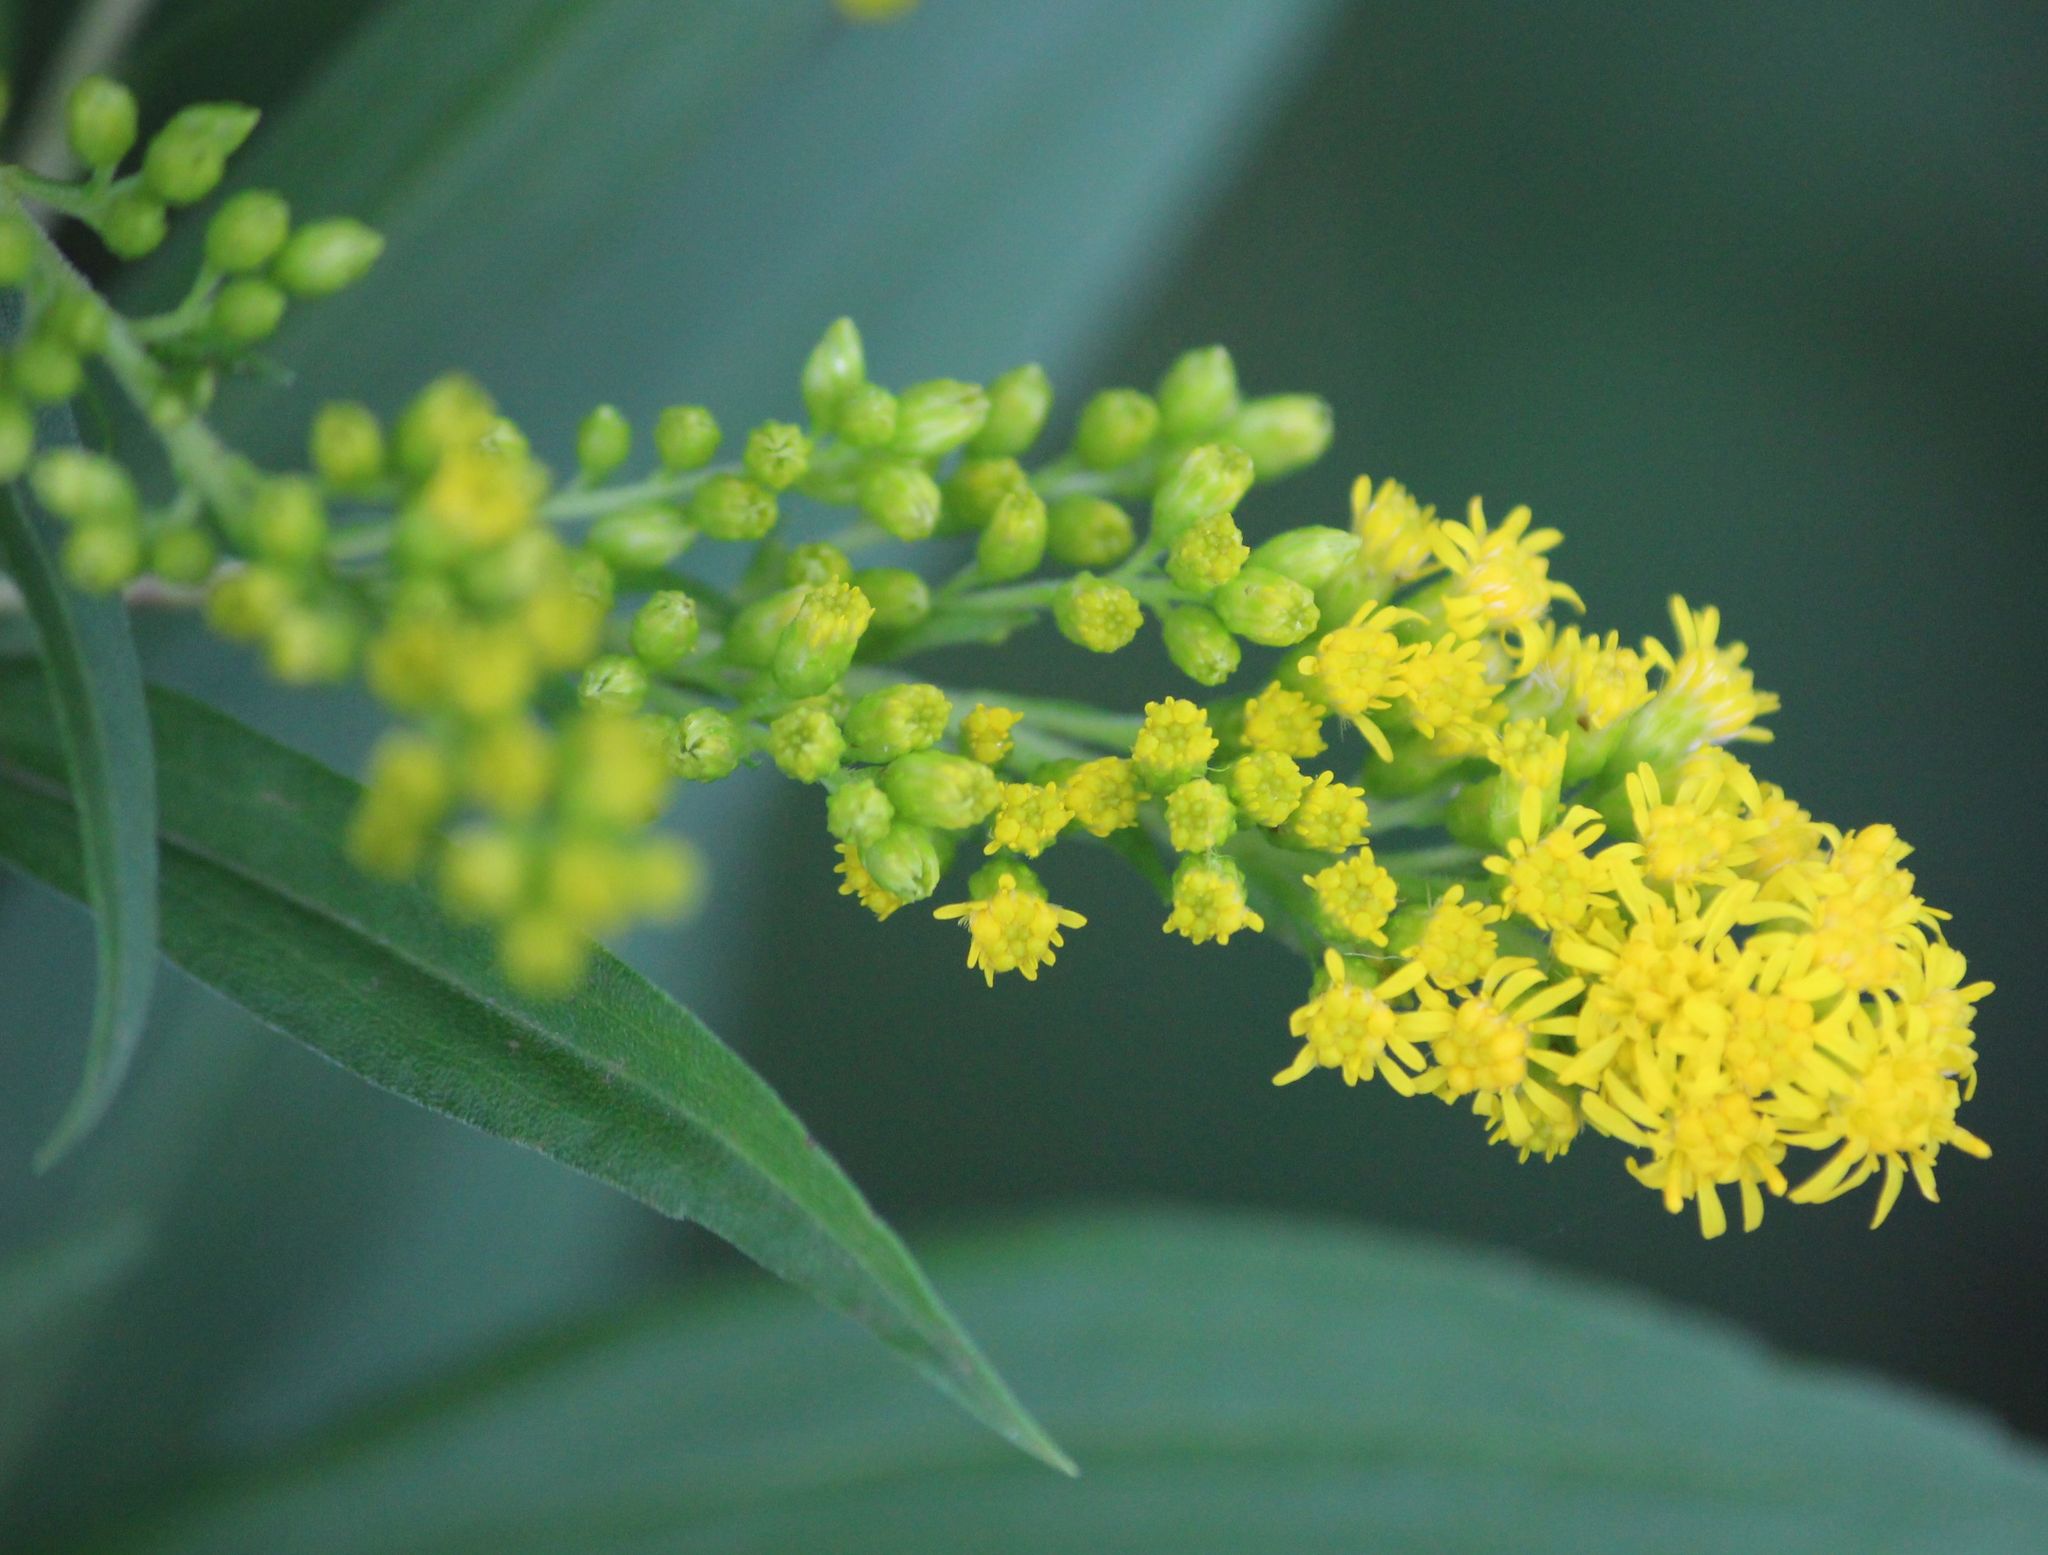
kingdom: Plantae
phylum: Tracheophyta
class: Magnoliopsida
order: Asterales
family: Asteraceae
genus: Solidago
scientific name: Solidago gigantea
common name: Giant goldenrod
